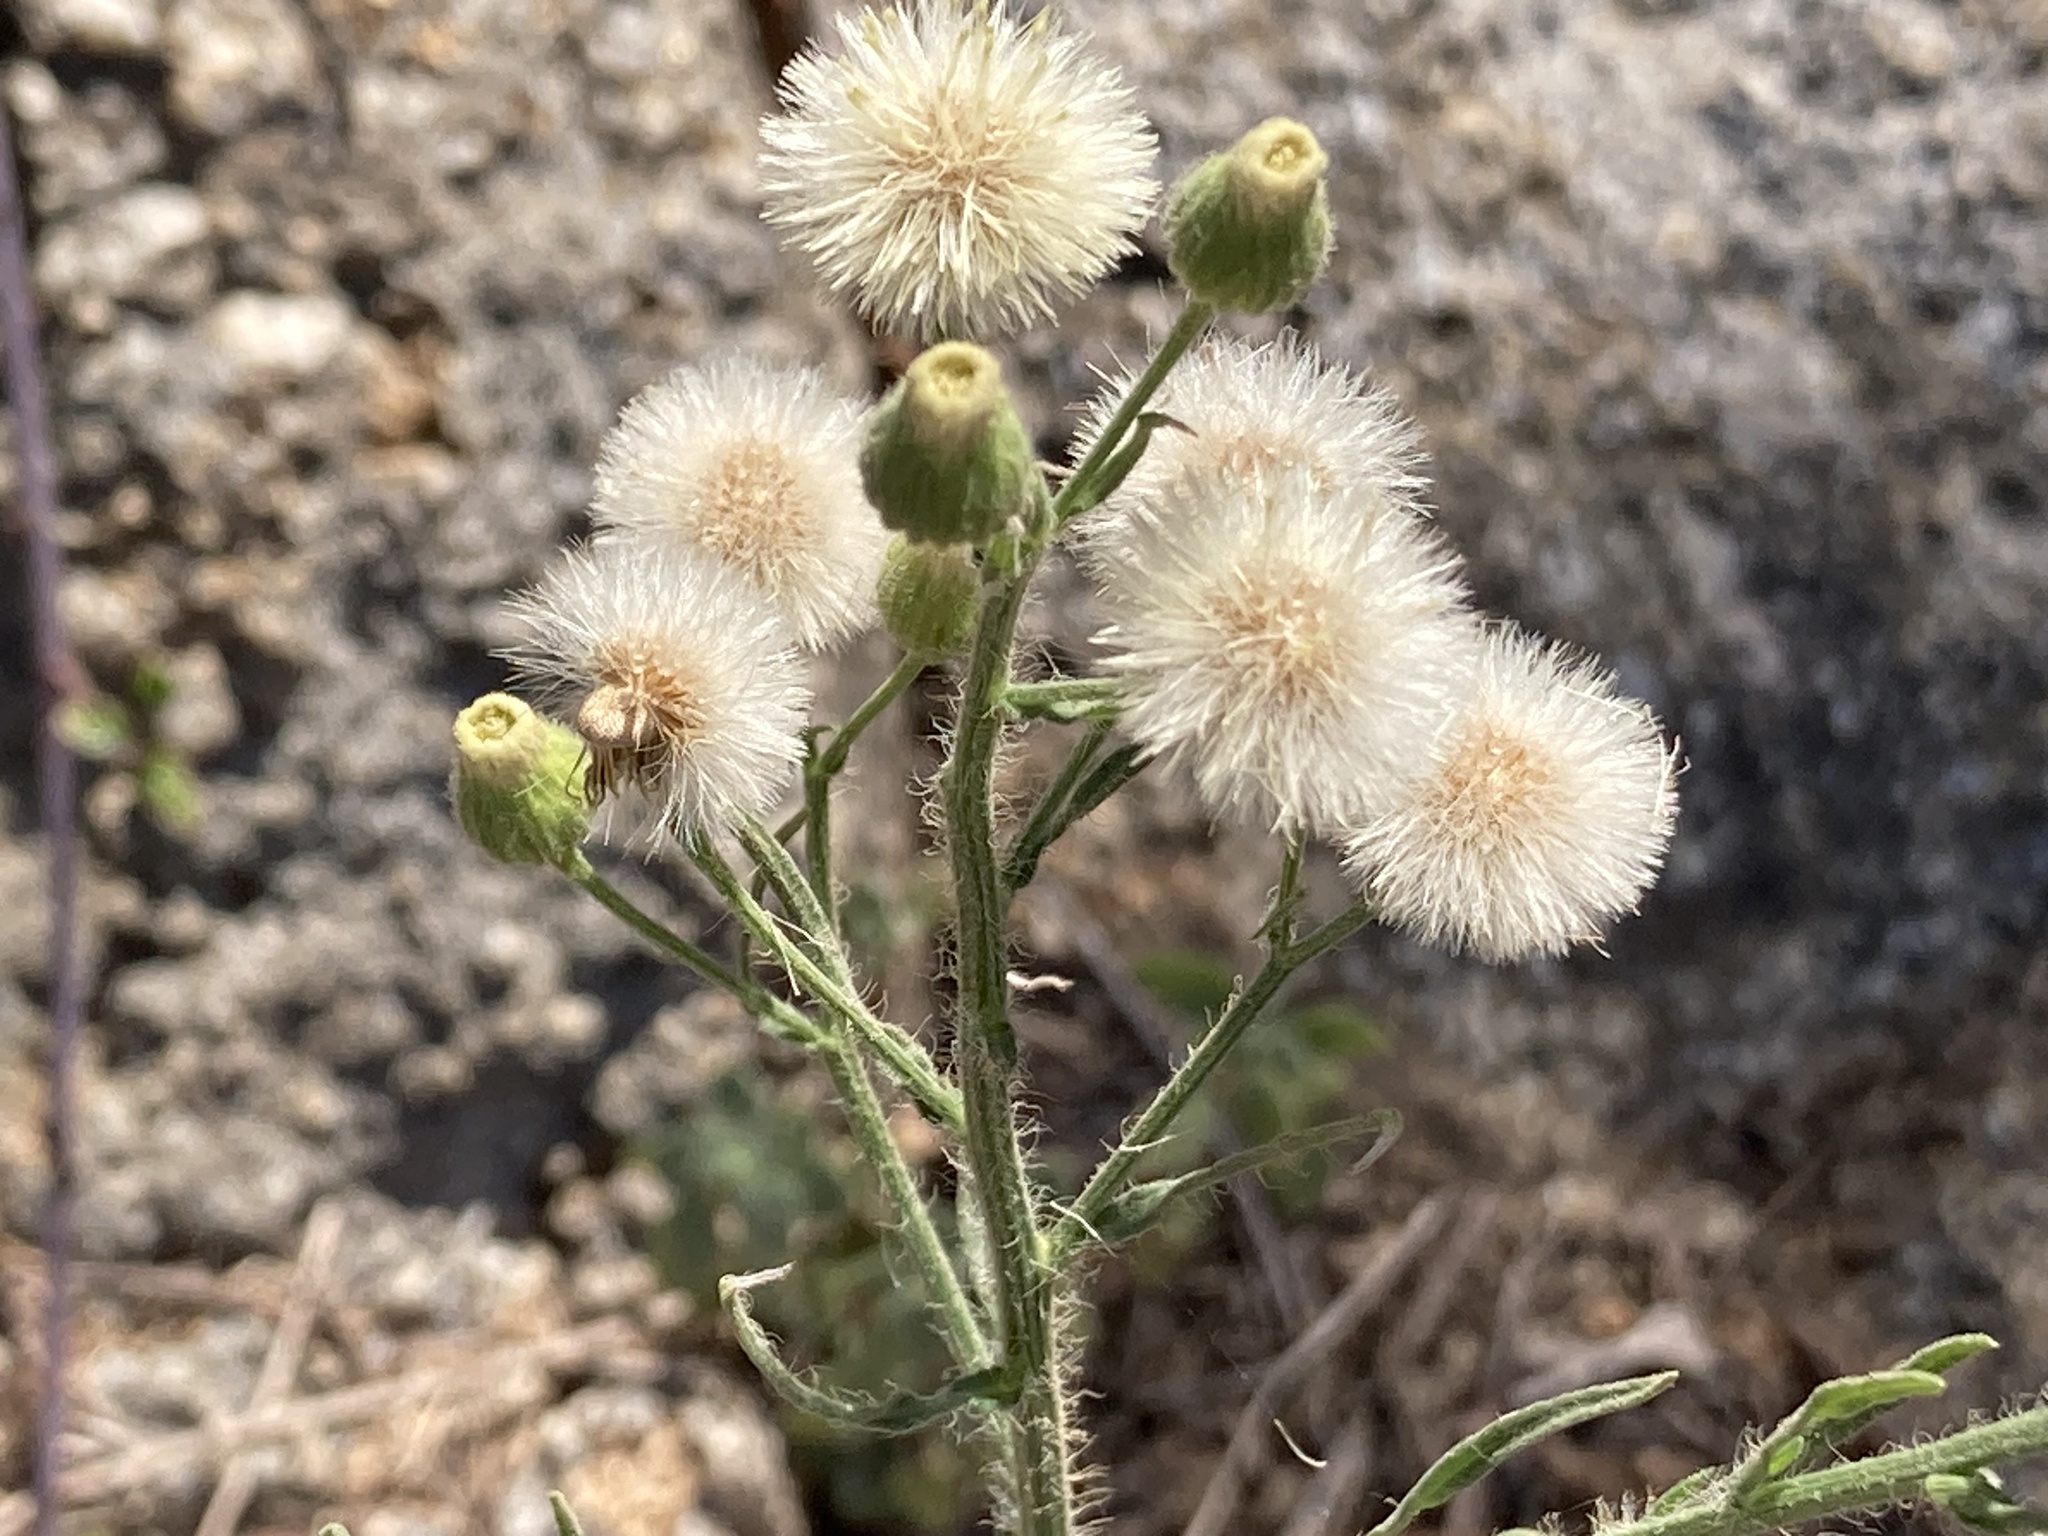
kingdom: Plantae
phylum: Tracheophyta
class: Magnoliopsida
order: Asterales
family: Asteraceae
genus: Erigeron
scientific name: Erigeron bonariensis
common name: Argentine fleabane
